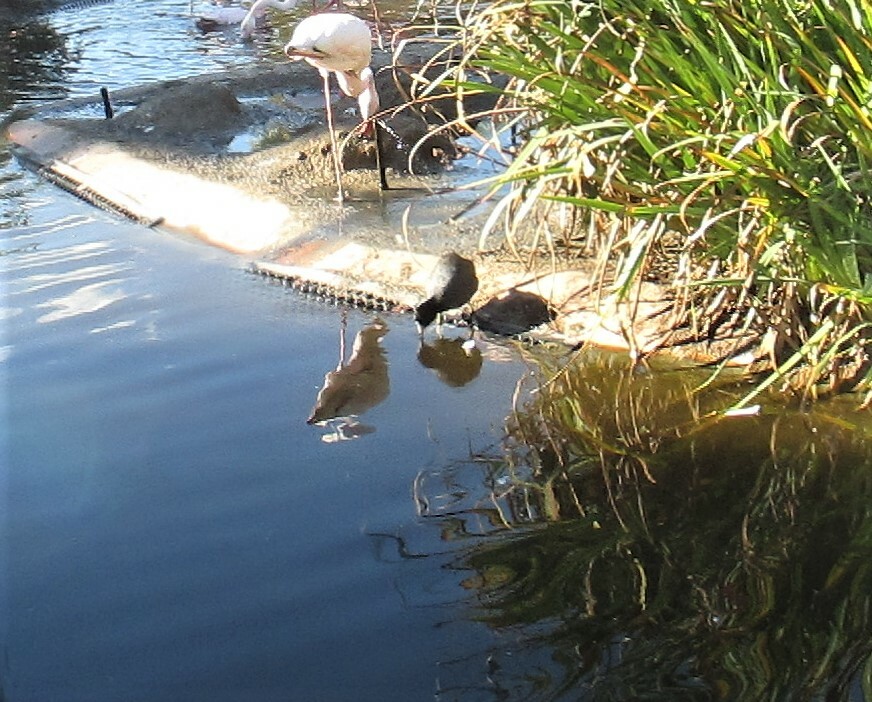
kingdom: Animalia
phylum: Chordata
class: Aves
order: Gruiformes
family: Rallidae
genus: Fulica
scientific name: Fulica americana
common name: American coot
